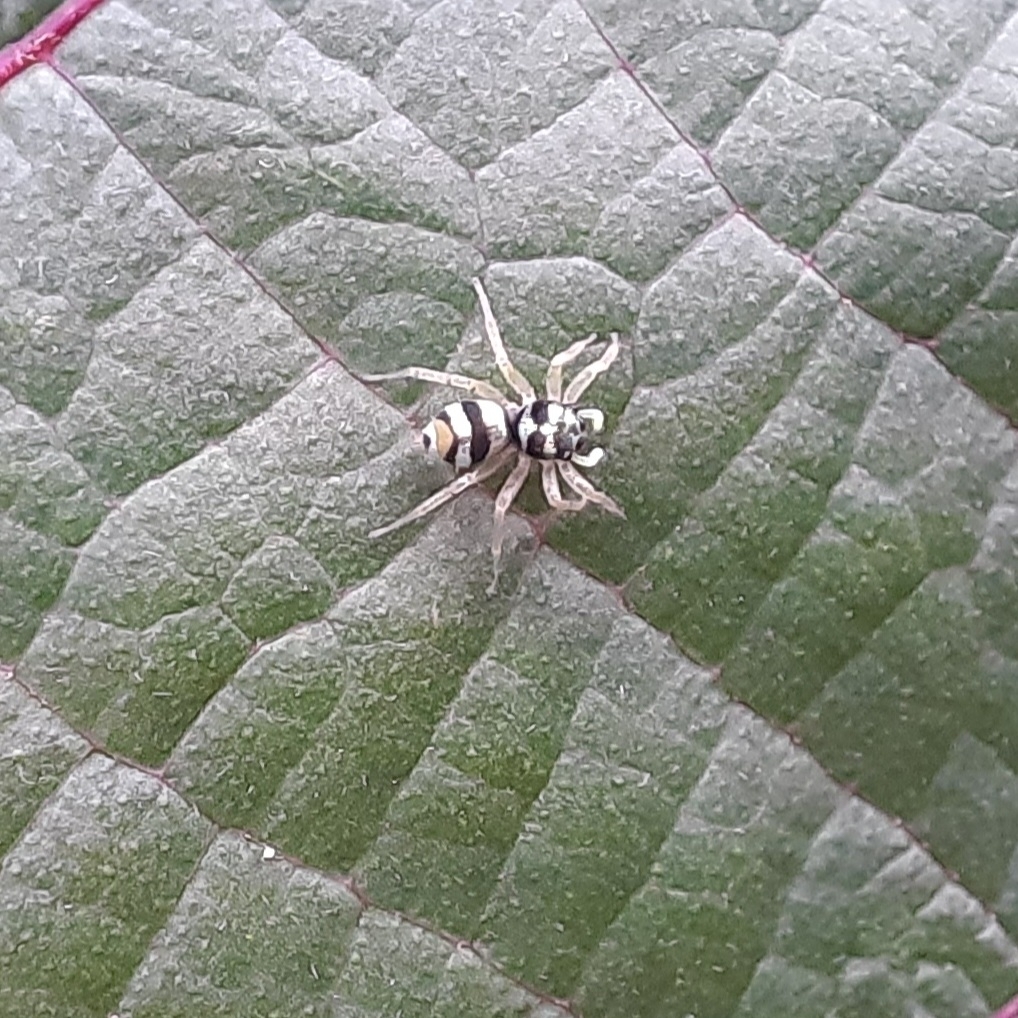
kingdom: Animalia
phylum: Arthropoda
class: Arachnida
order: Araneae
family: Salticidae
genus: Phintella
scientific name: Phintella vittata
